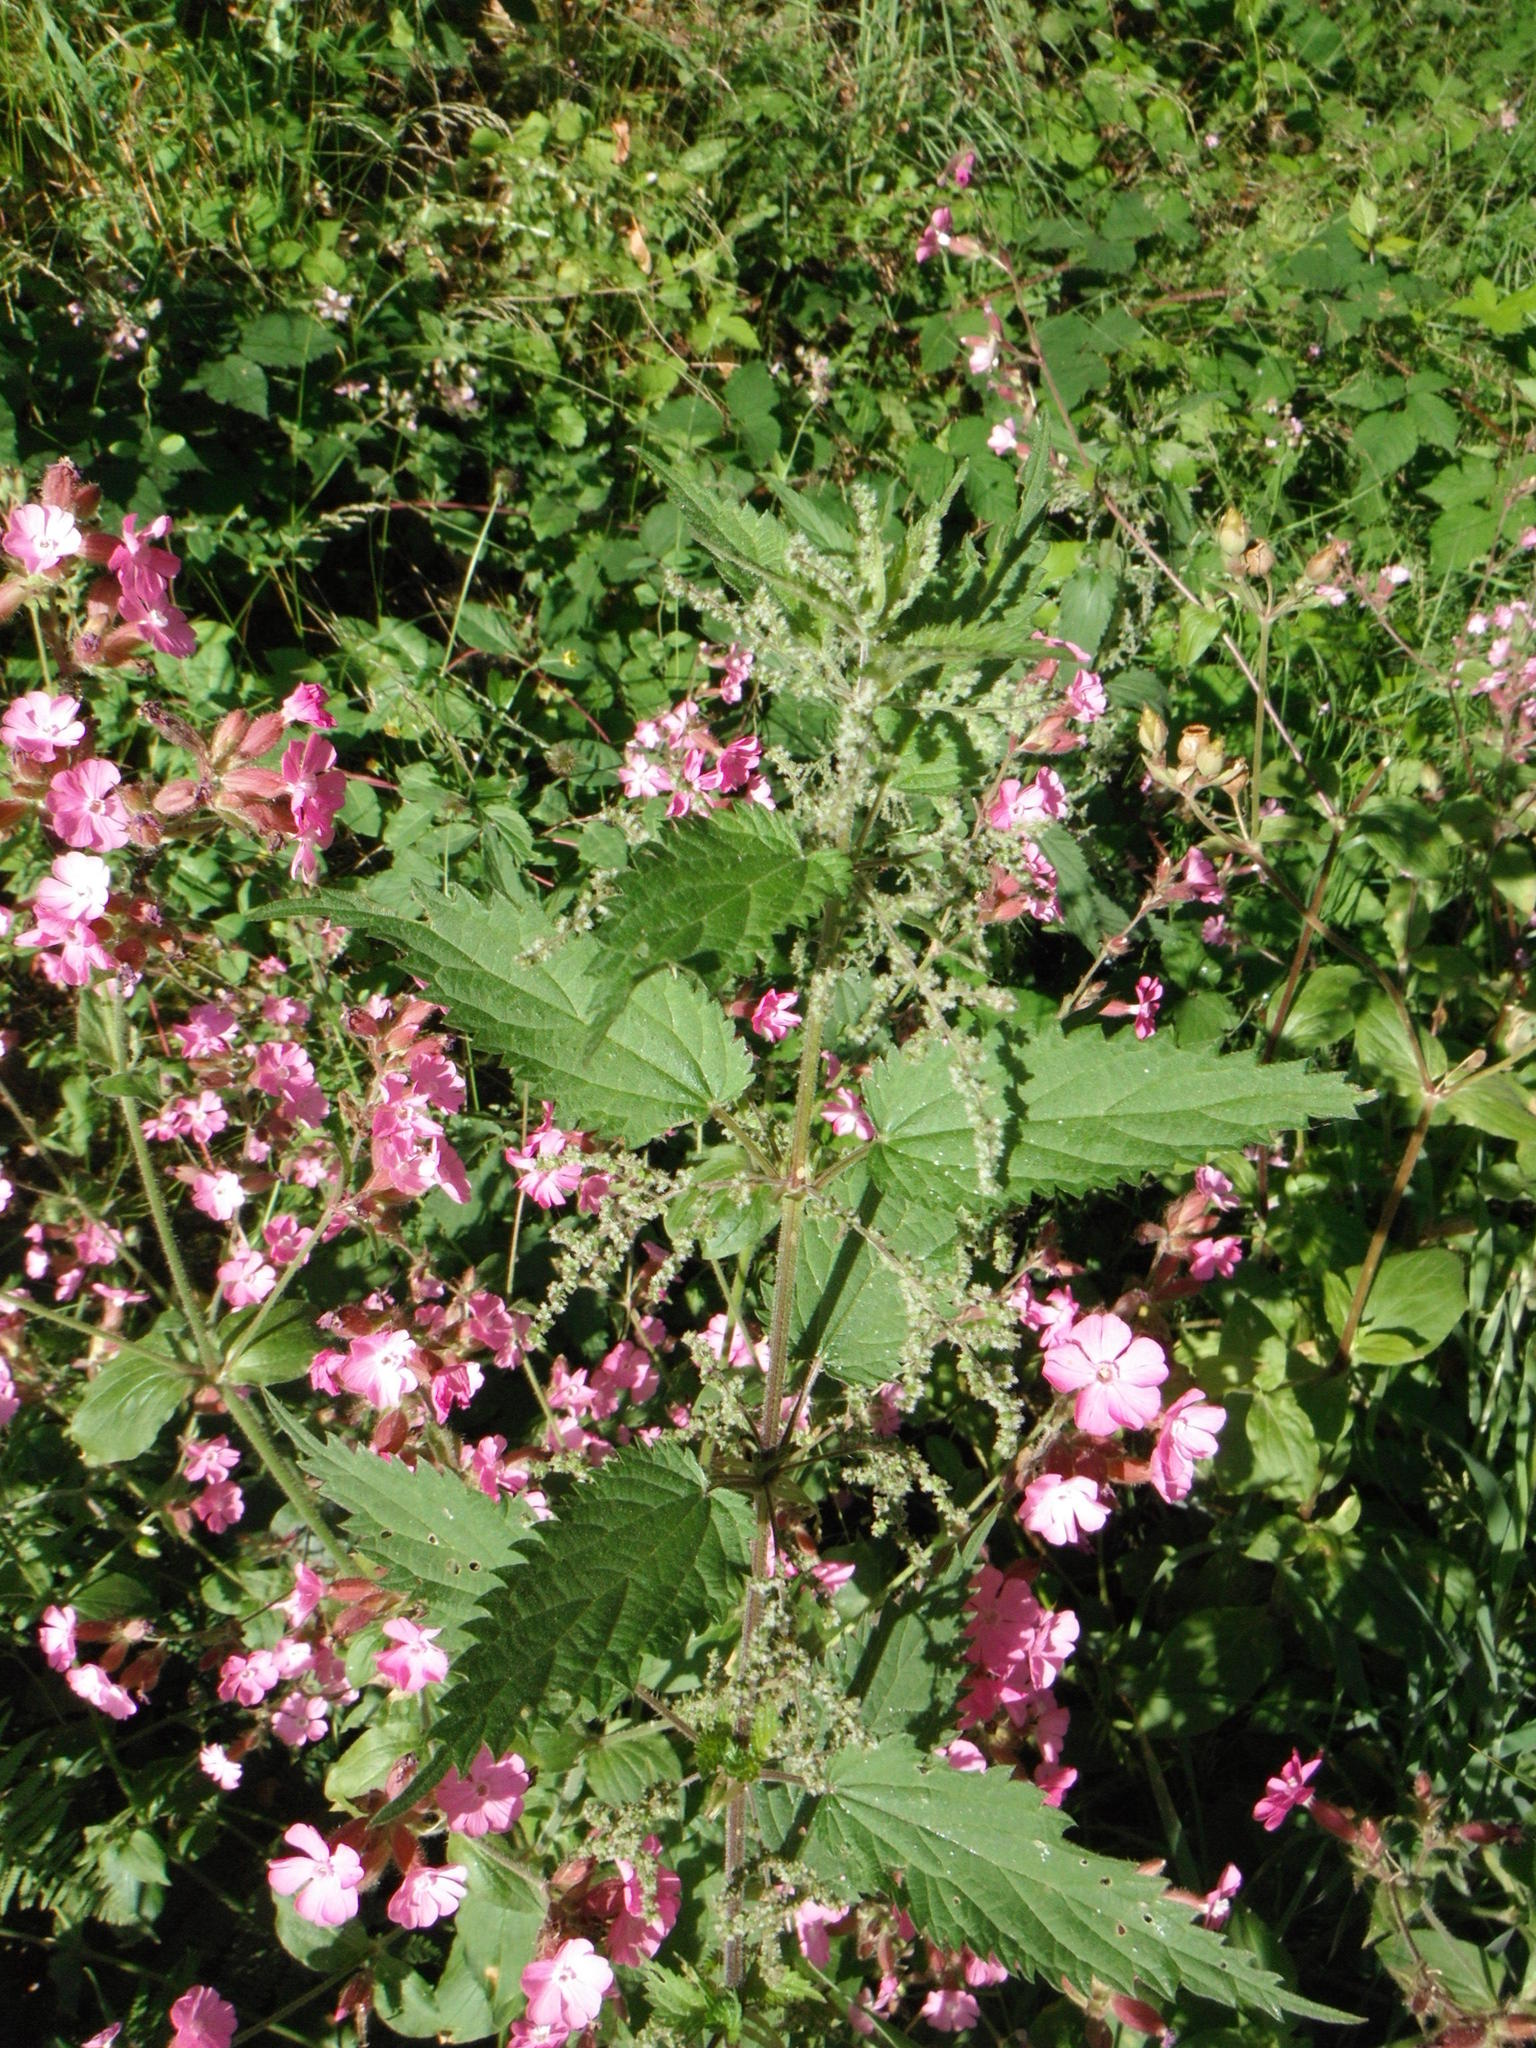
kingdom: Plantae
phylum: Tracheophyta
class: Magnoliopsida
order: Rosales
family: Urticaceae
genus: Urtica
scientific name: Urtica dioica
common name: Common nettle
